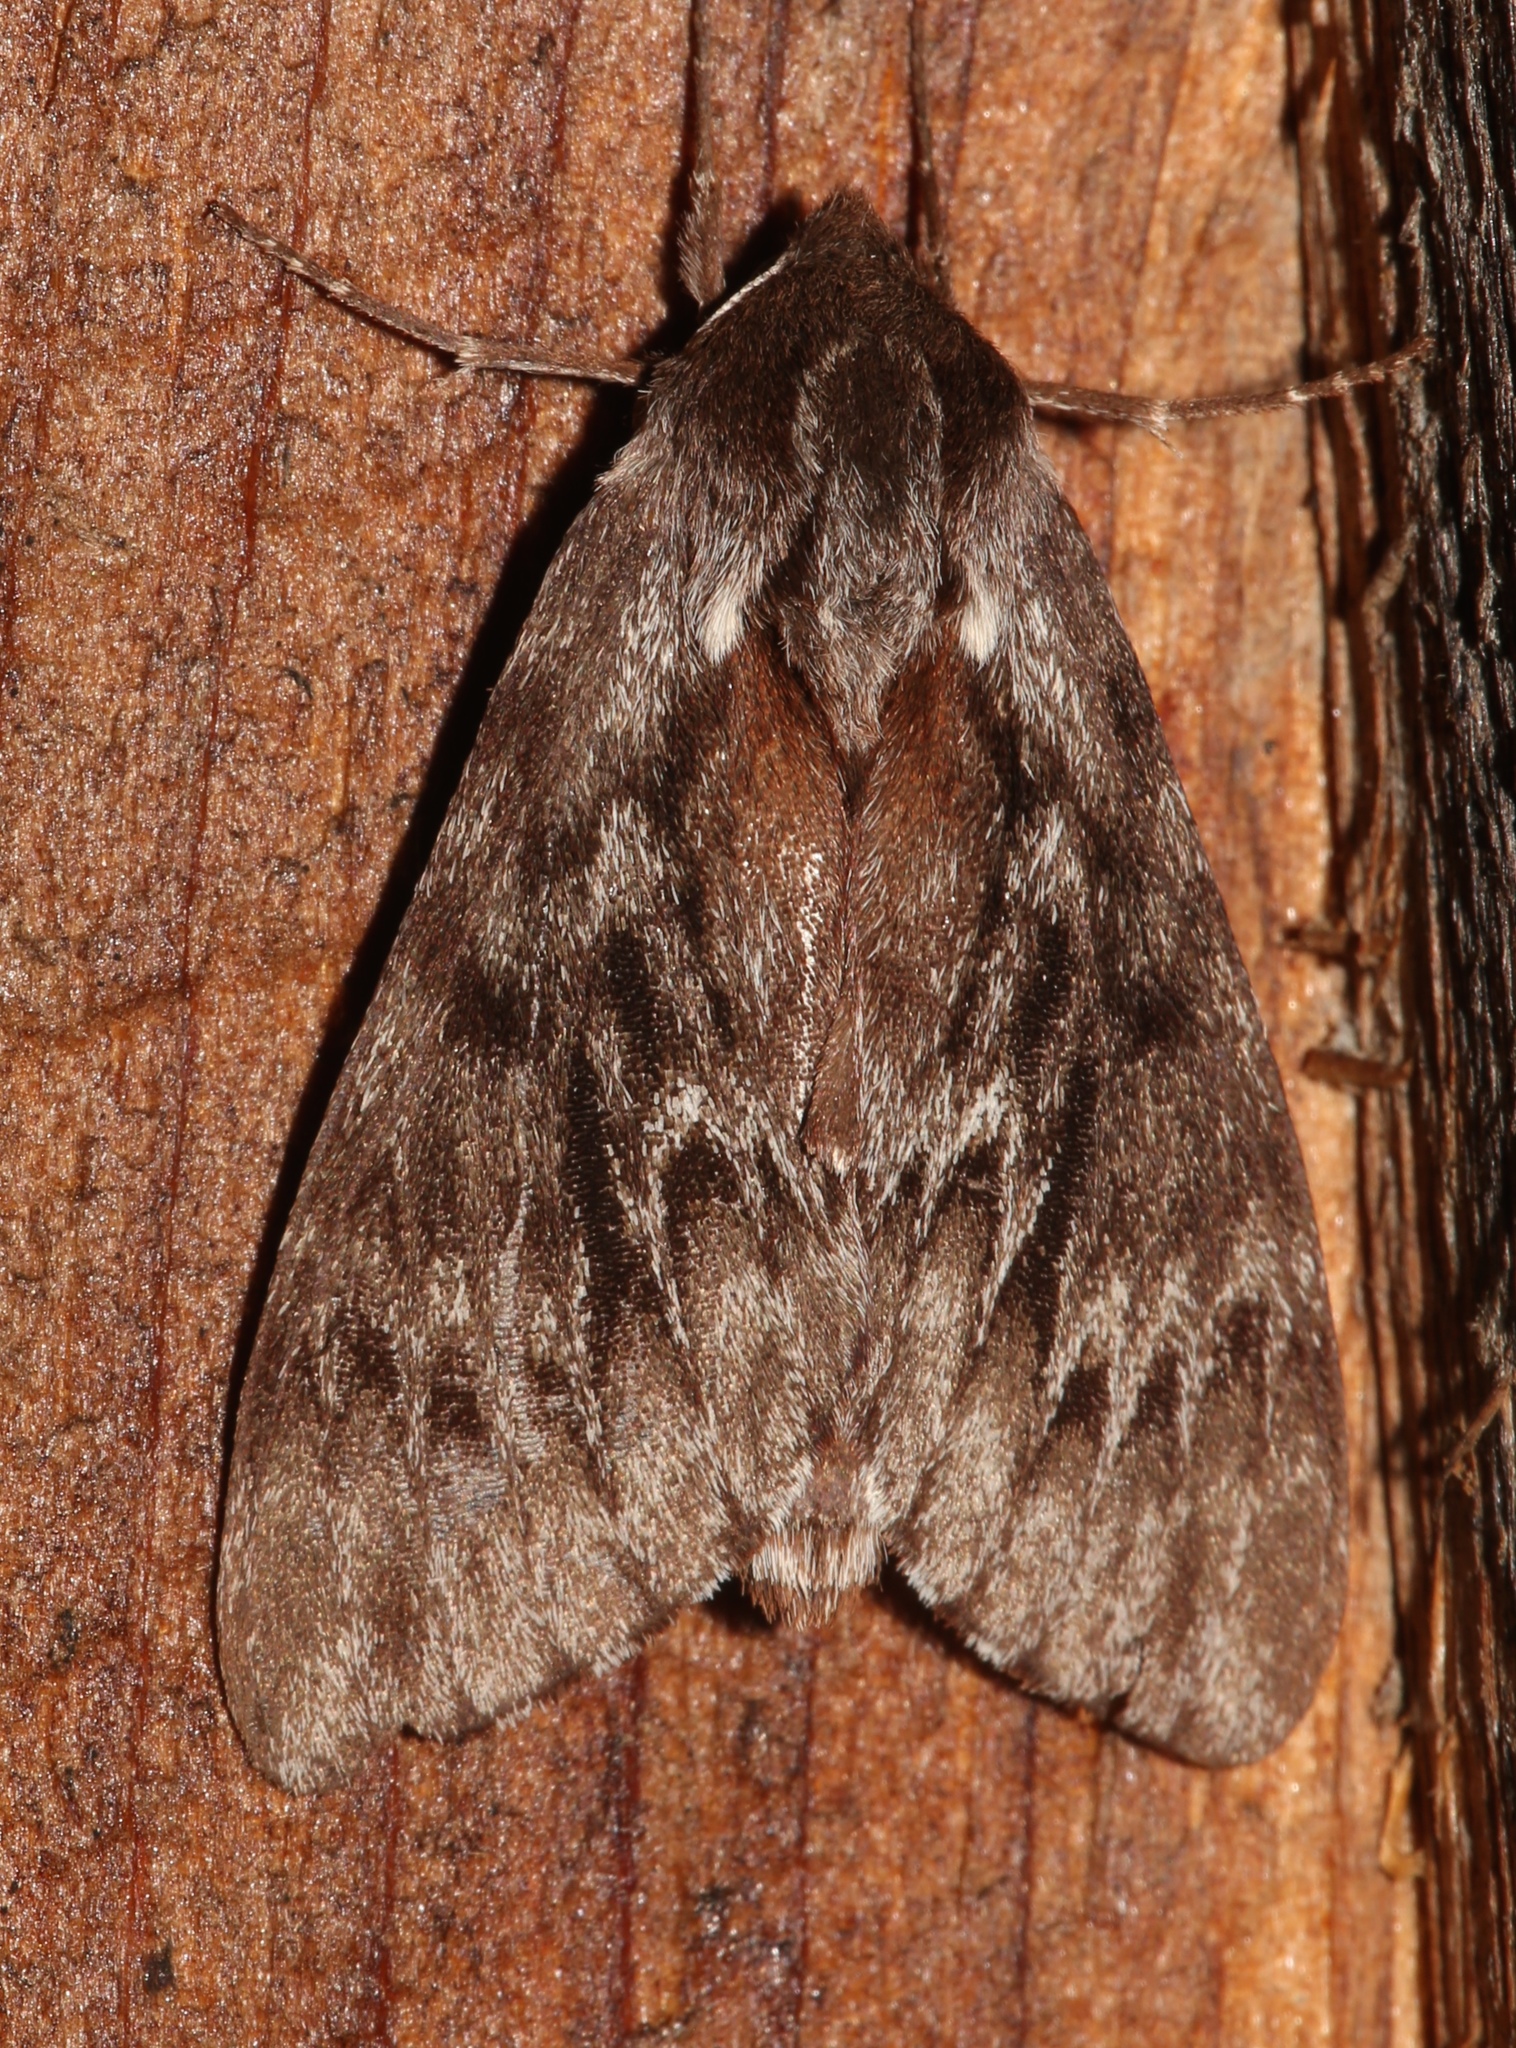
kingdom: Animalia
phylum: Arthropoda
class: Insecta
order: Lepidoptera
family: Sphingidae
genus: Lapara
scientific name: Lapara bombycoides
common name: Northern pine sphinx
